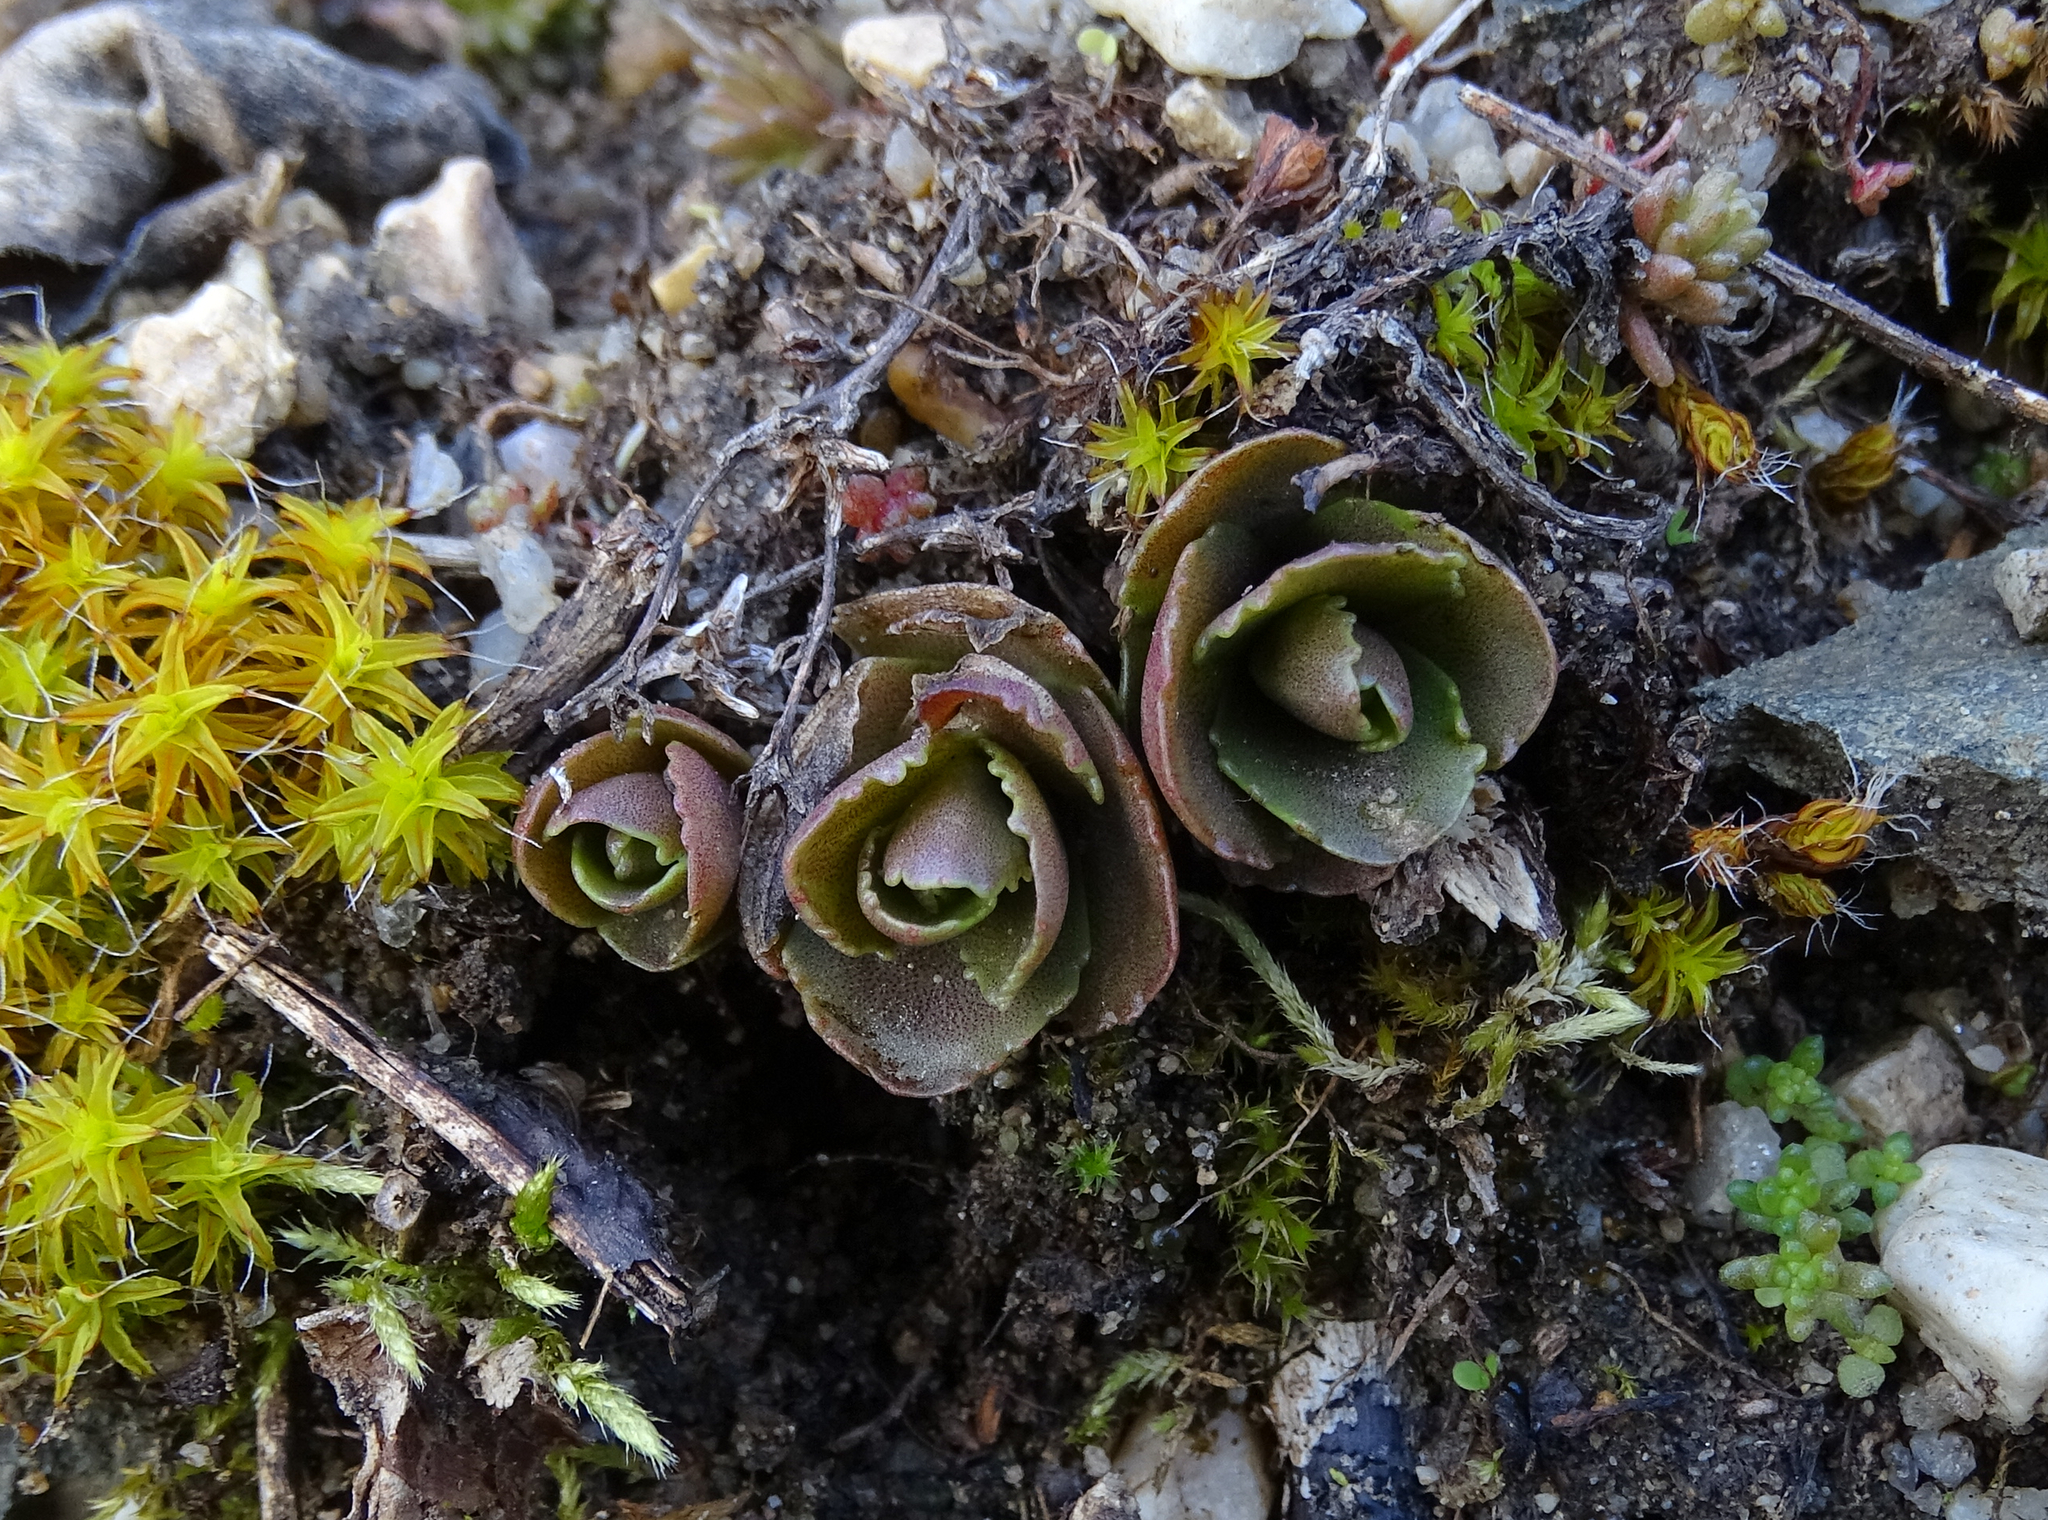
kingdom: Plantae
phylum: Tracheophyta
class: Magnoliopsida
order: Saxifragales
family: Crassulaceae
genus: Hylotelephium
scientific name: Hylotelephium
